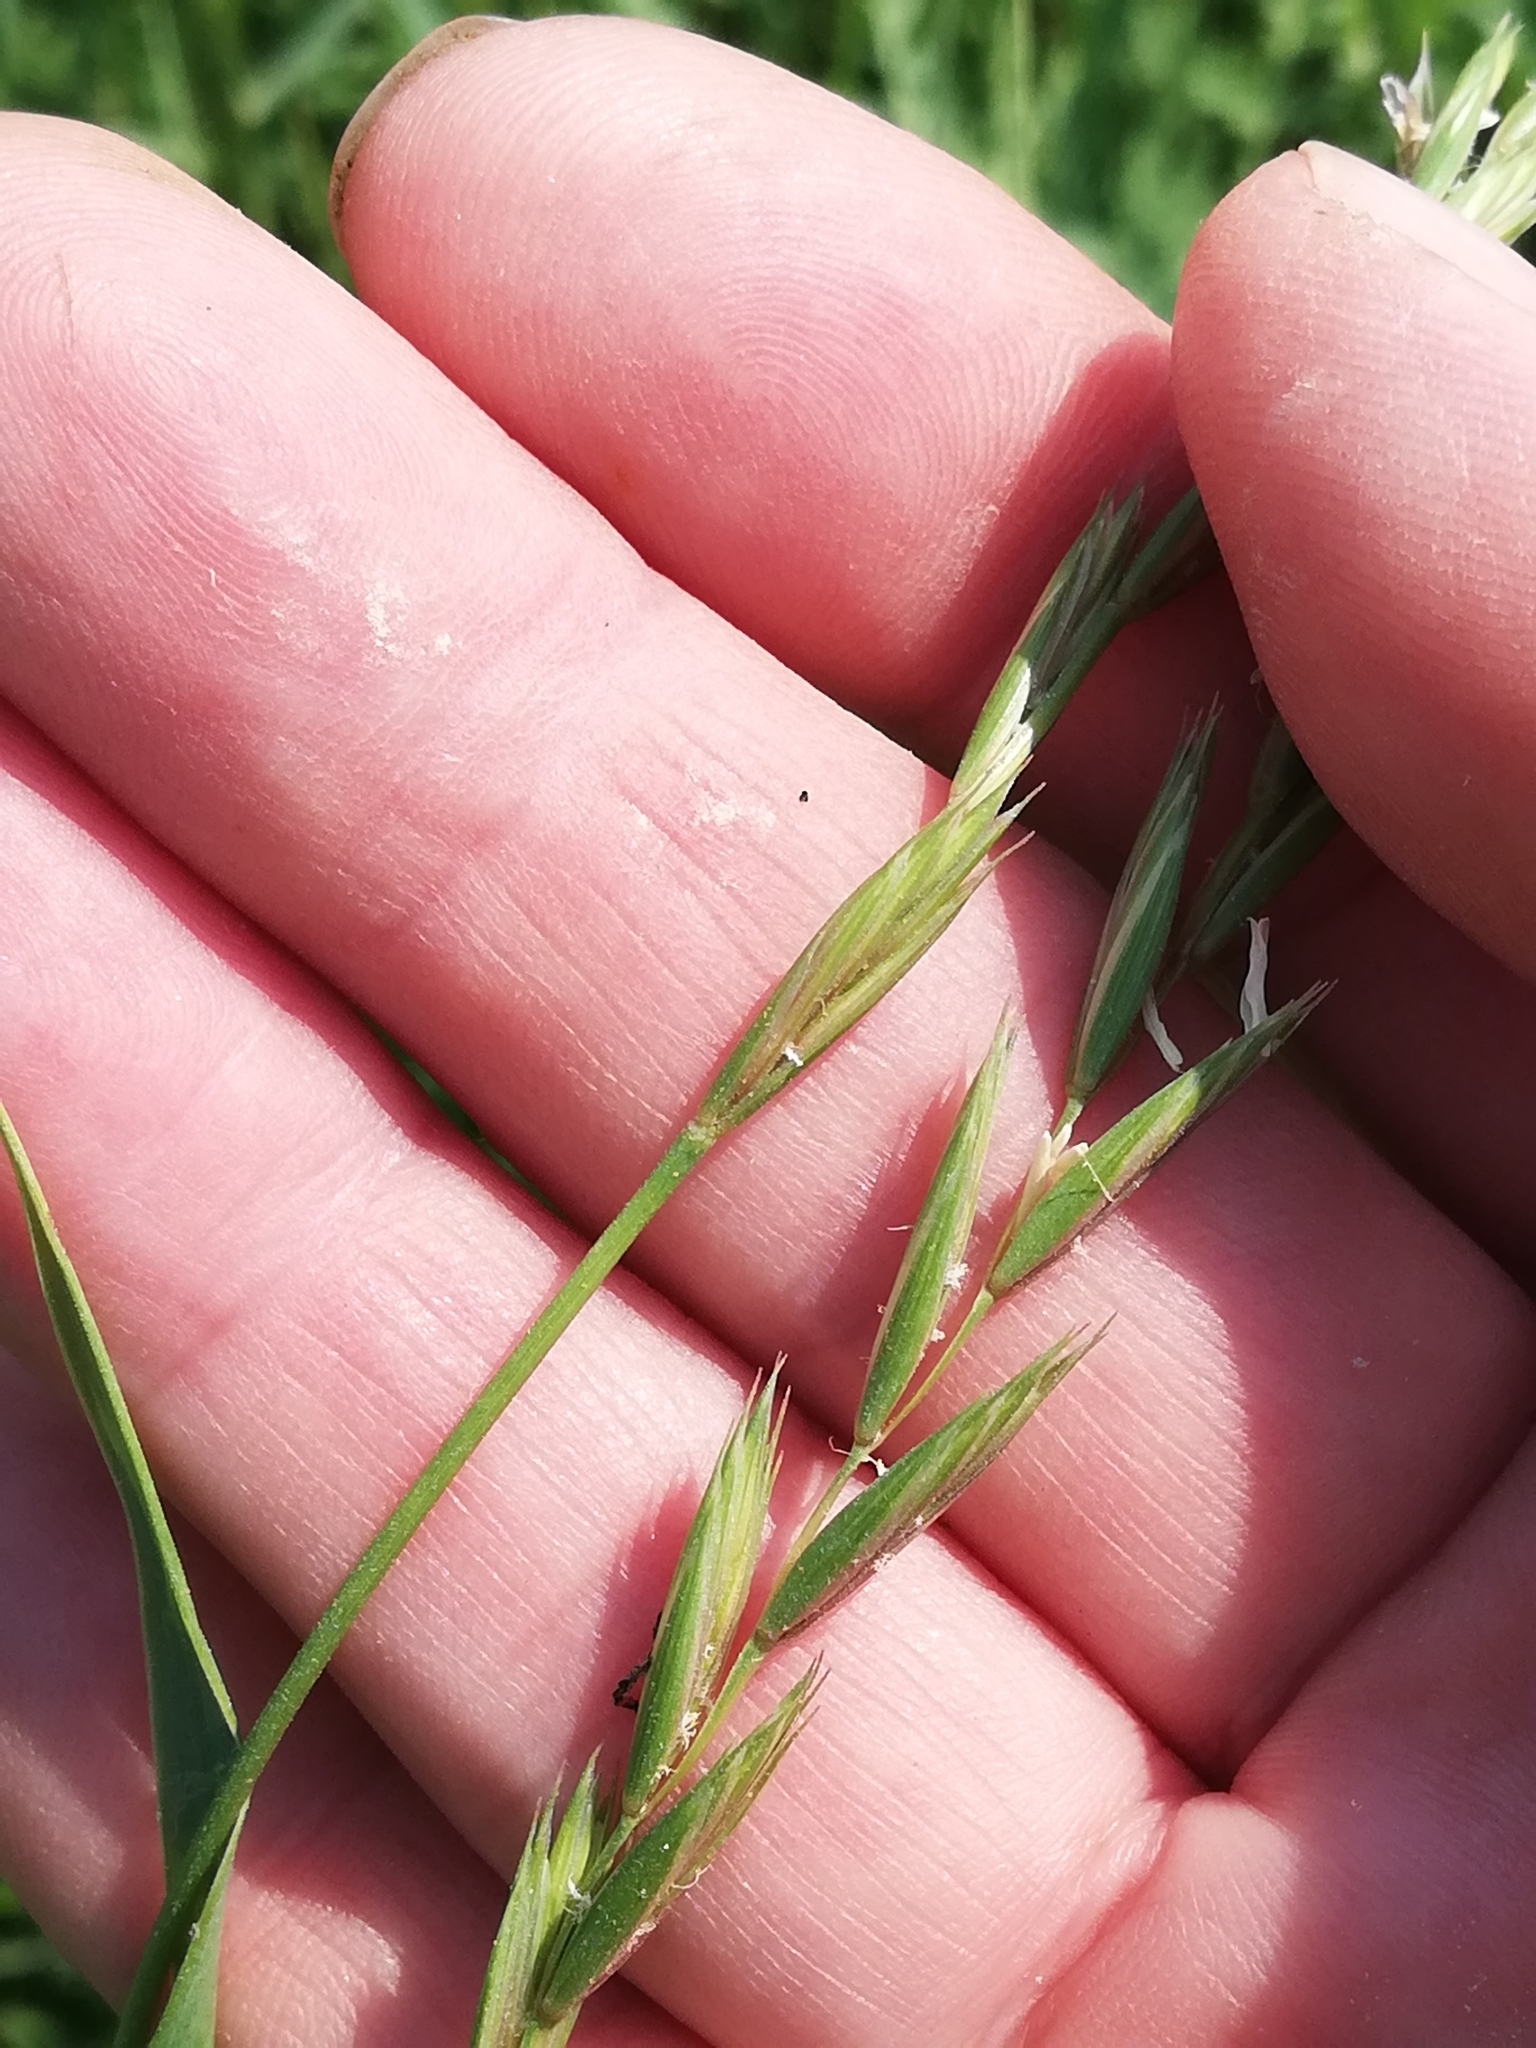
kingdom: Plantae
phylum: Tracheophyta
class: Liliopsida
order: Poales
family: Poaceae
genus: Elymus
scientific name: Elymus repens
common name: Quackgrass
